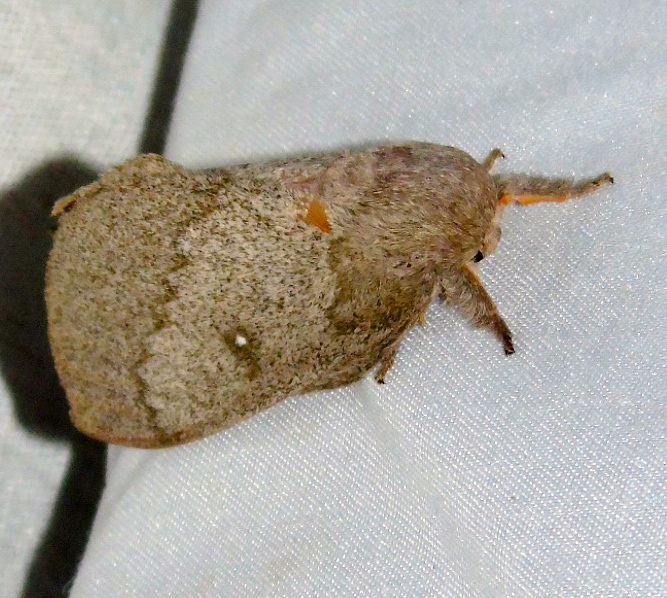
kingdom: Animalia
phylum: Arthropoda
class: Insecta
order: Lepidoptera
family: Saturniidae
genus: Syssphinx
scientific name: Syssphinx
